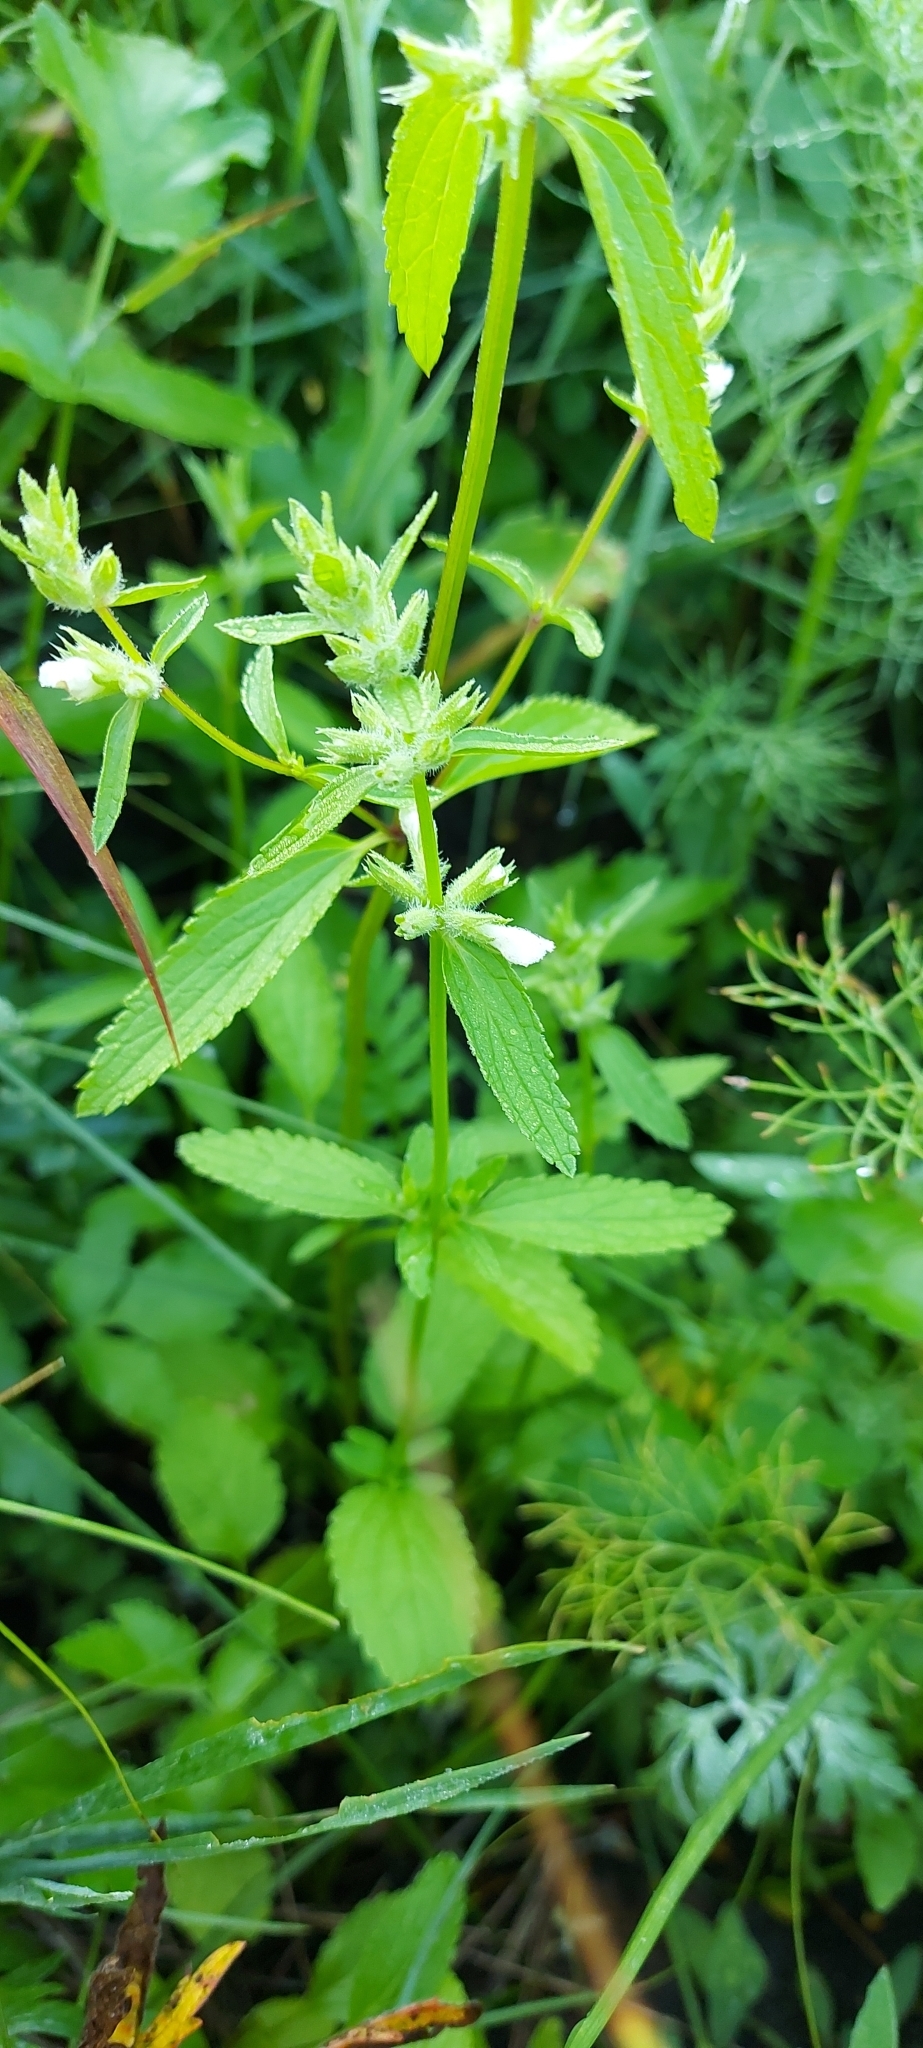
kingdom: Plantae
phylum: Tracheophyta
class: Magnoliopsida
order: Lamiales
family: Lamiaceae
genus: Stachys
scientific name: Stachys annua
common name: Annual yellow-woundwort
